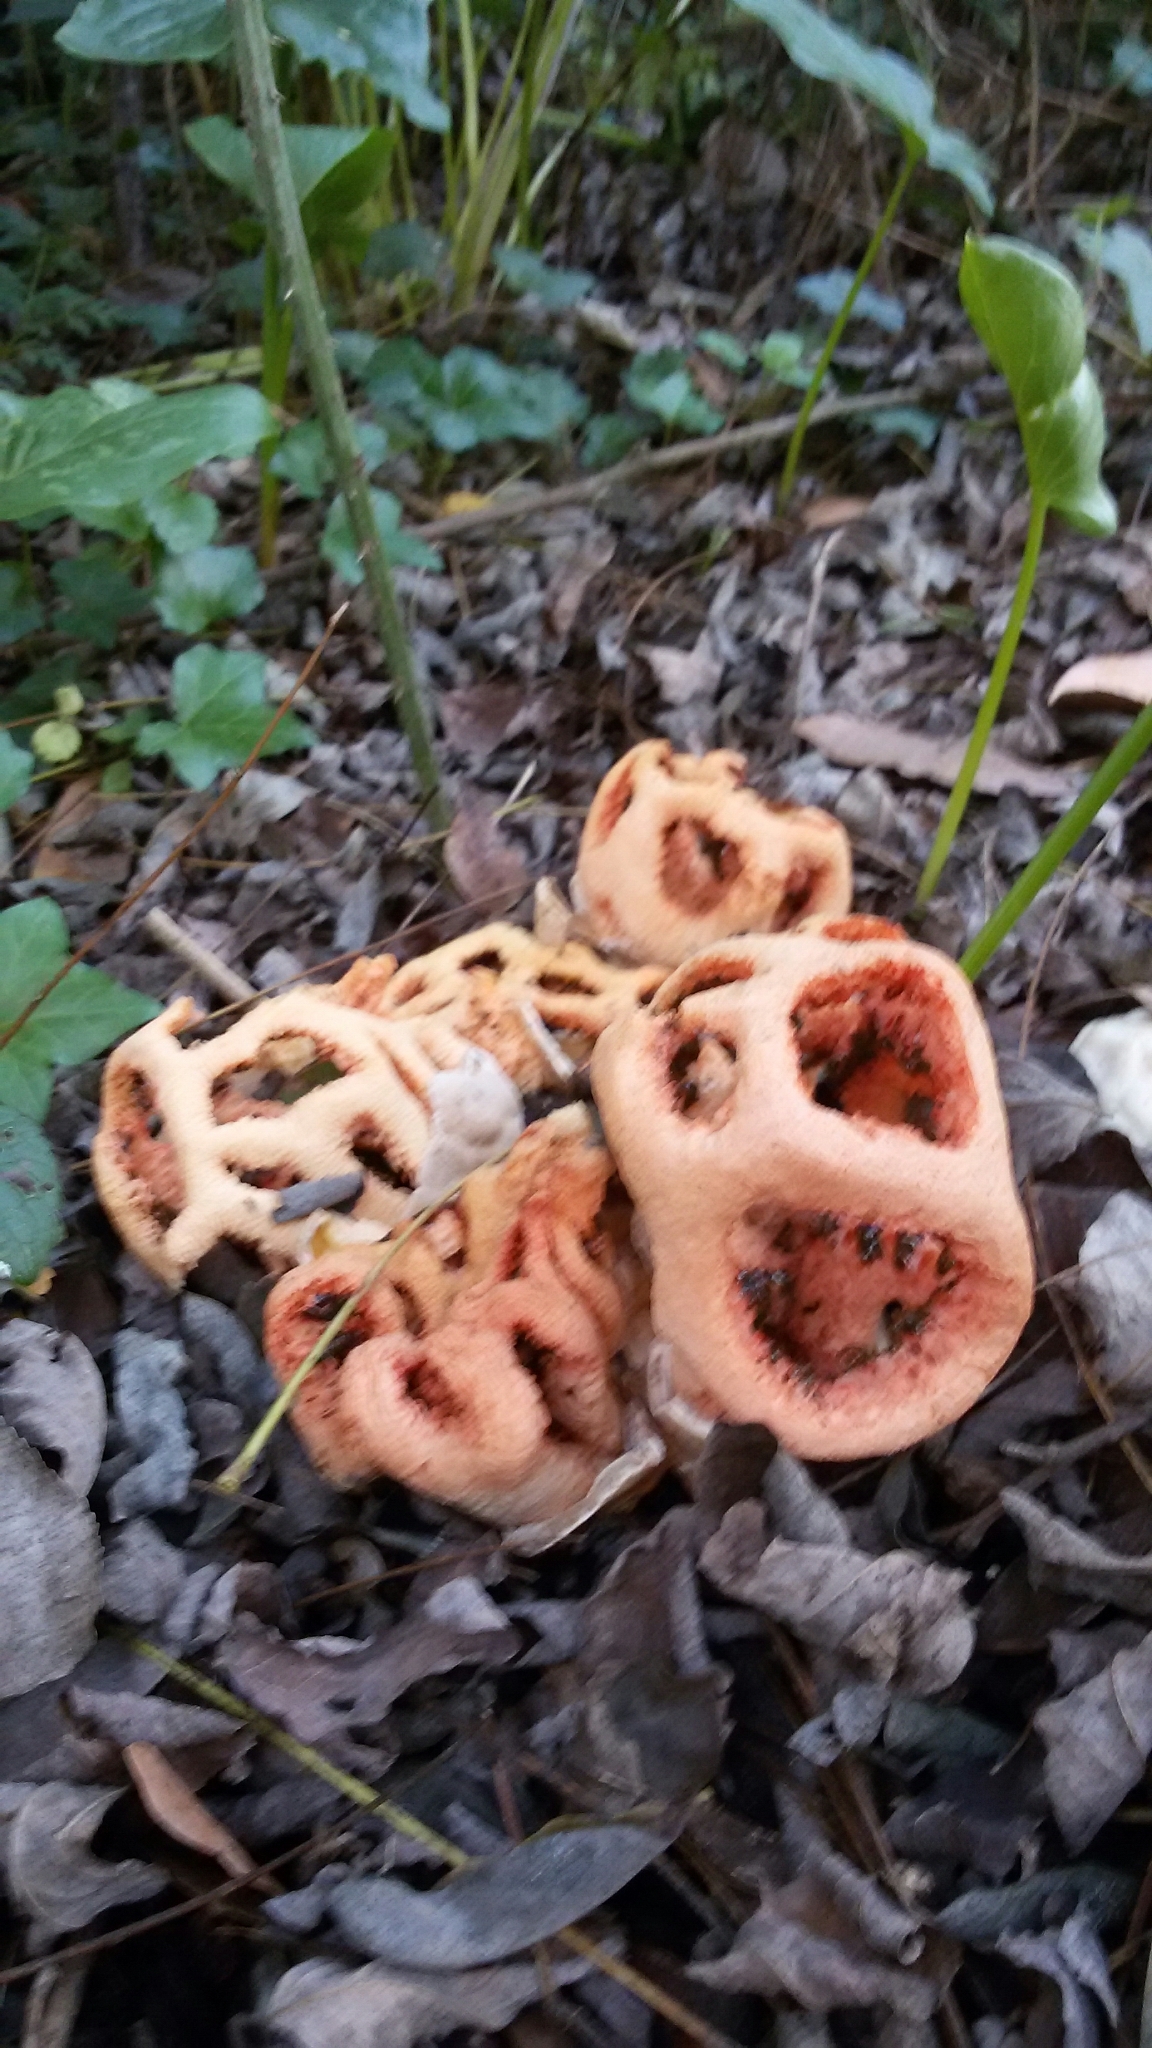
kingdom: Fungi
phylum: Basidiomycota
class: Agaricomycetes
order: Phallales
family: Phallaceae
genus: Clathrus
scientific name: Clathrus ruber
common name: Red cage
